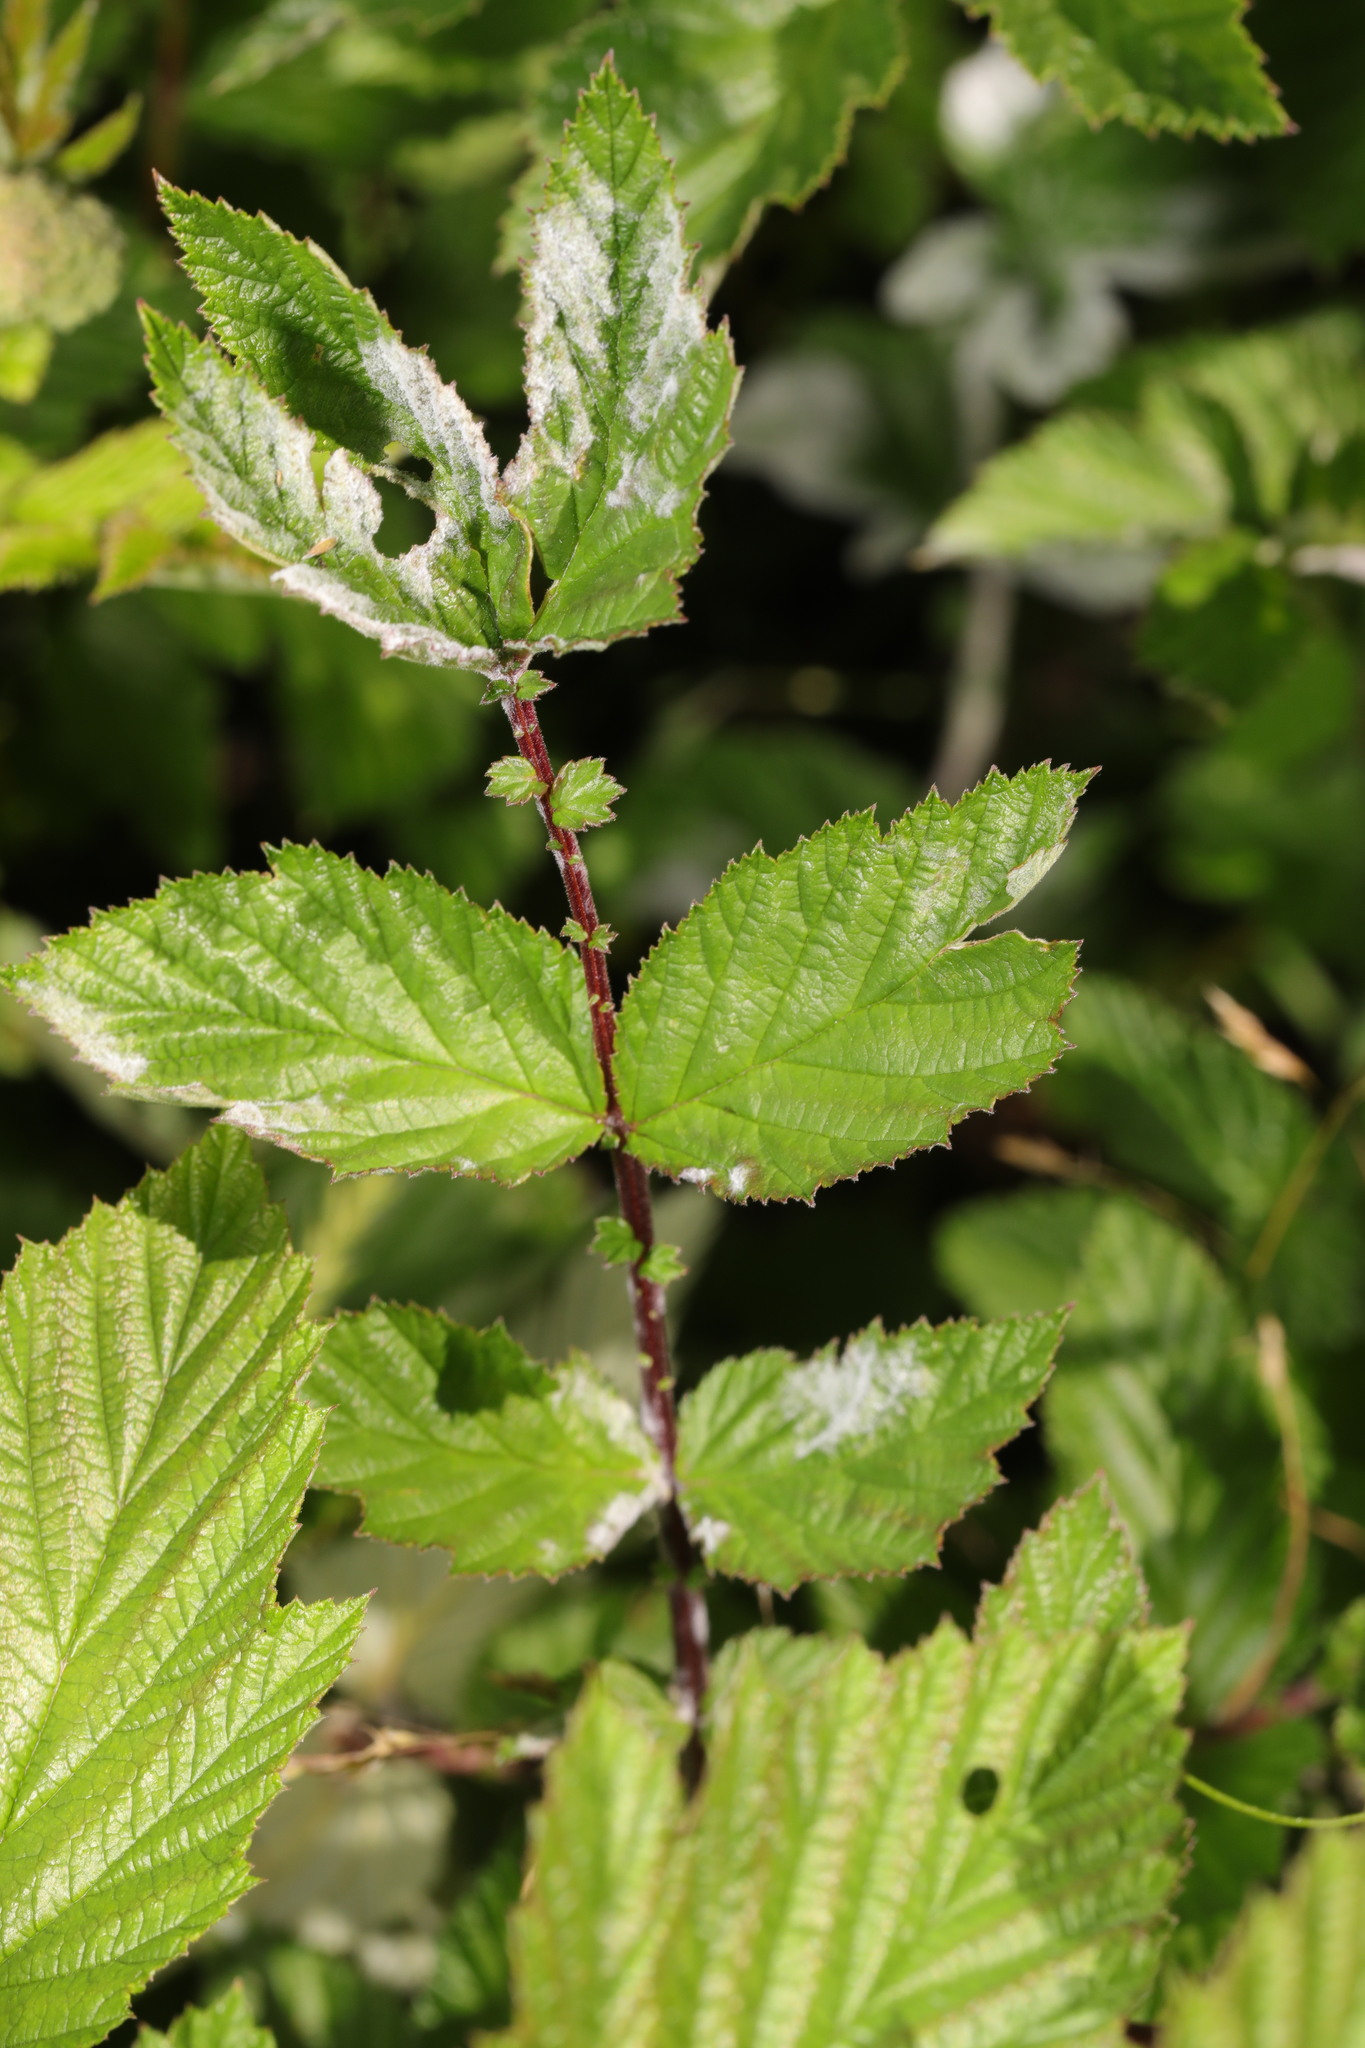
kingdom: Fungi
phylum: Ascomycota
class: Leotiomycetes
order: Helotiales
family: Erysiphaceae
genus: Podosphaera
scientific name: Podosphaera filipendulae
